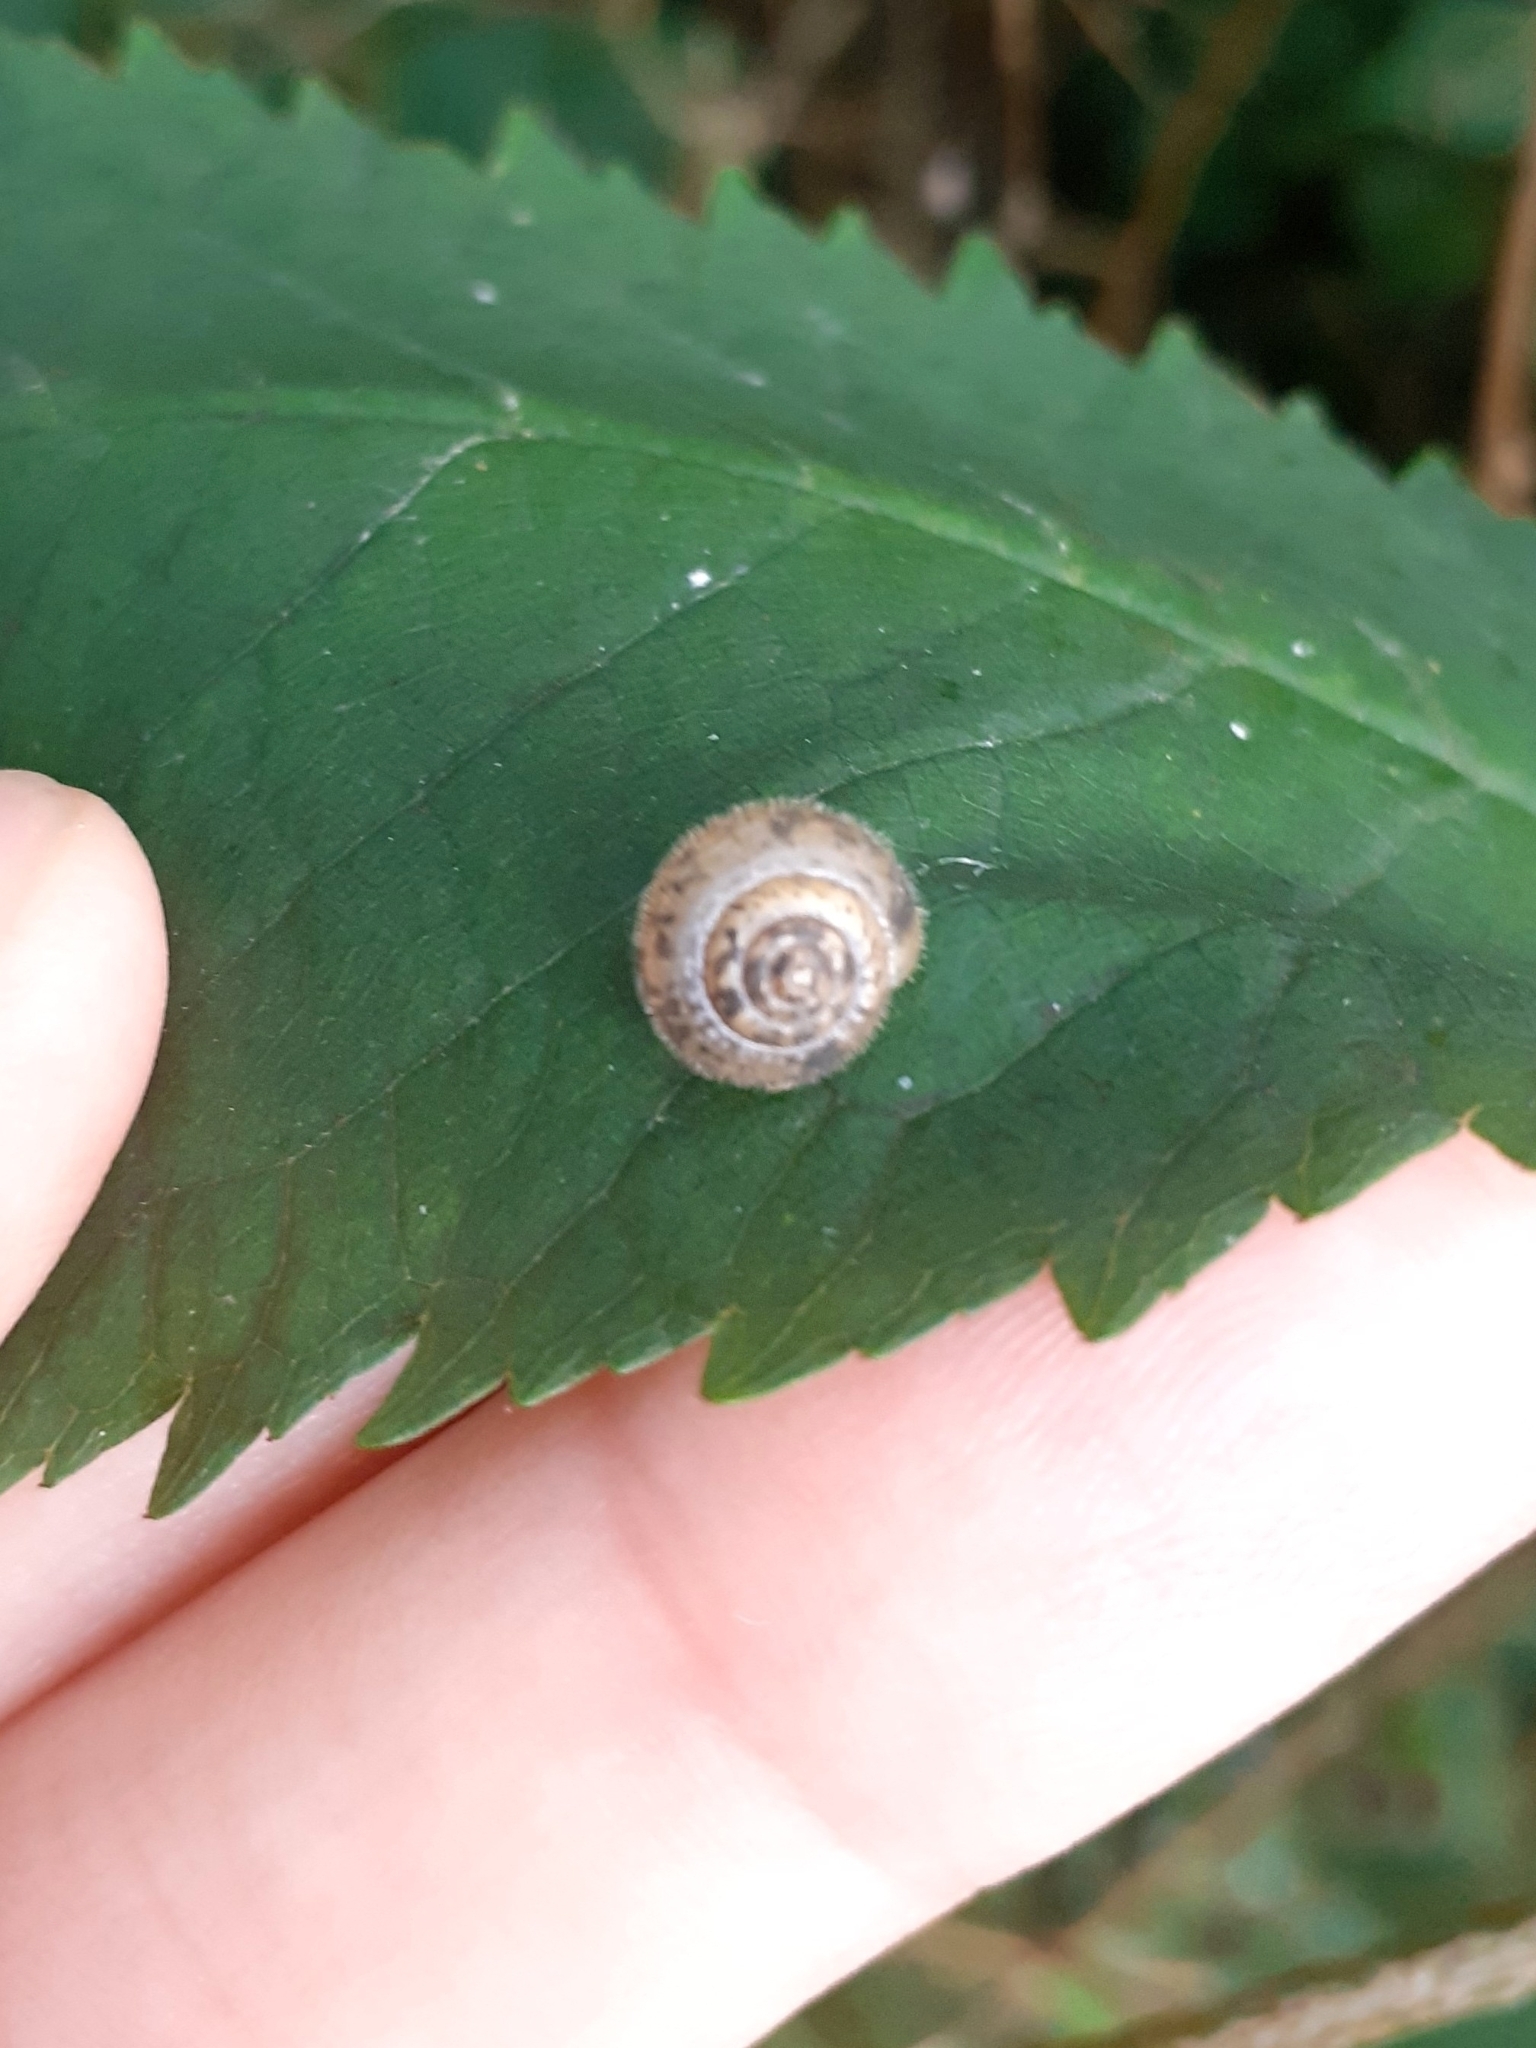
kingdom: Animalia
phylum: Mollusca
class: Gastropoda
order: Stylommatophora
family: Hygromiidae
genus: Ashfordia
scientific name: Ashfordia granulata
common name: Silky snail
